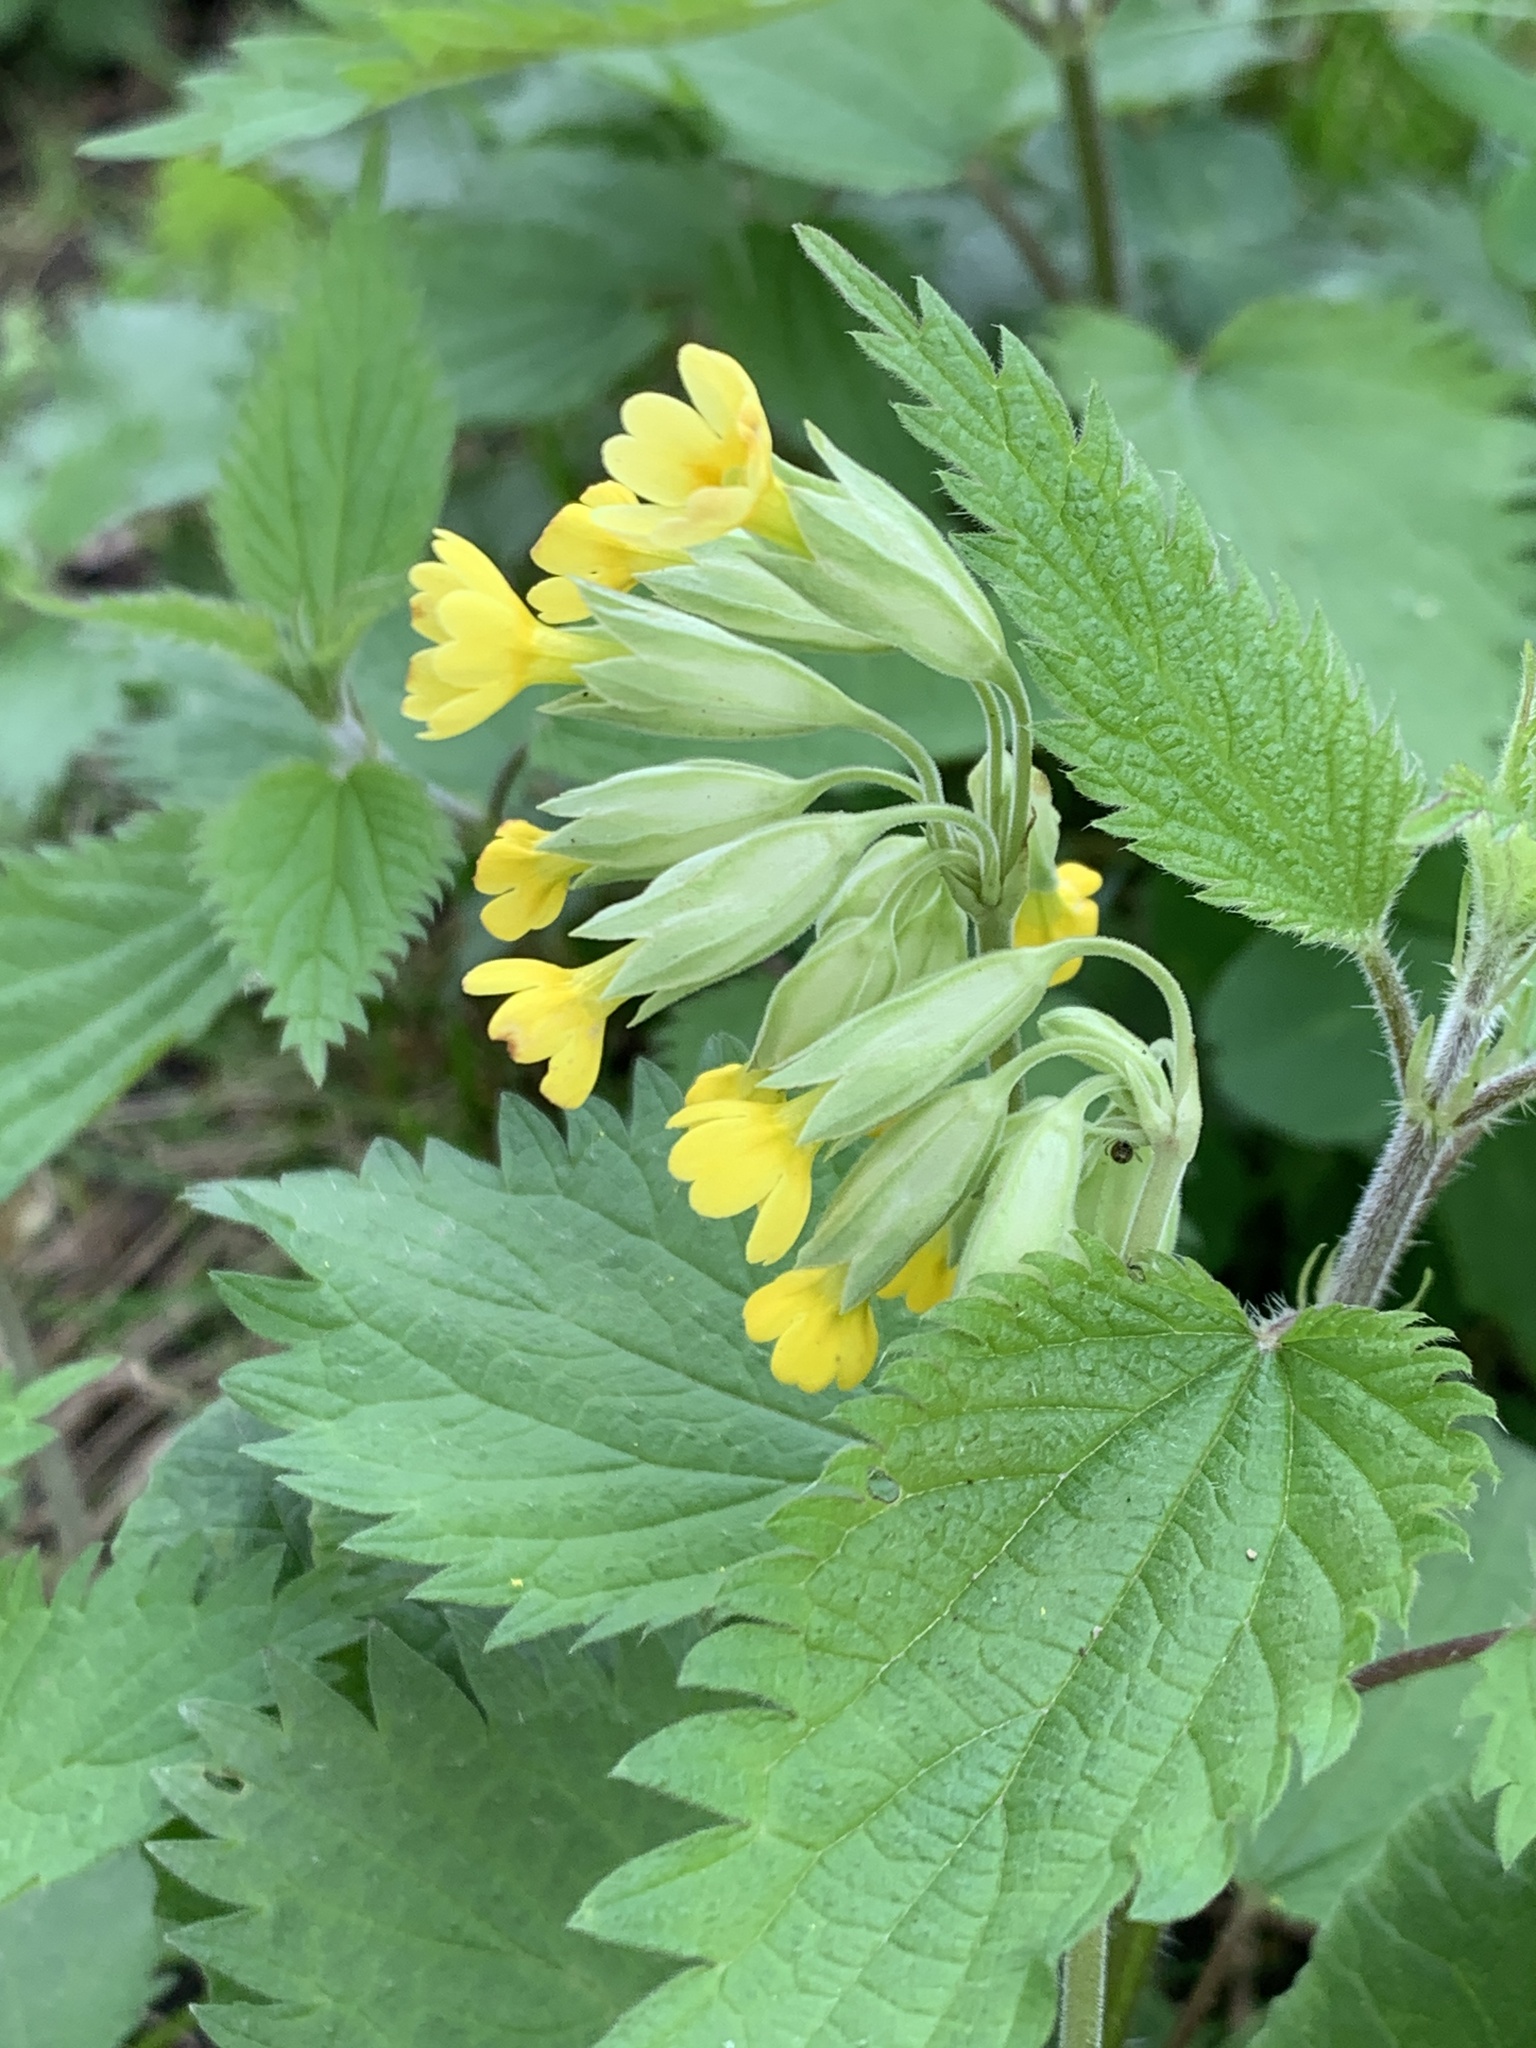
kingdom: Plantae
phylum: Tracheophyta
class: Magnoliopsida
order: Ericales
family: Primulaceae
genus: Primula
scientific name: Primula veris
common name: Cowslip
